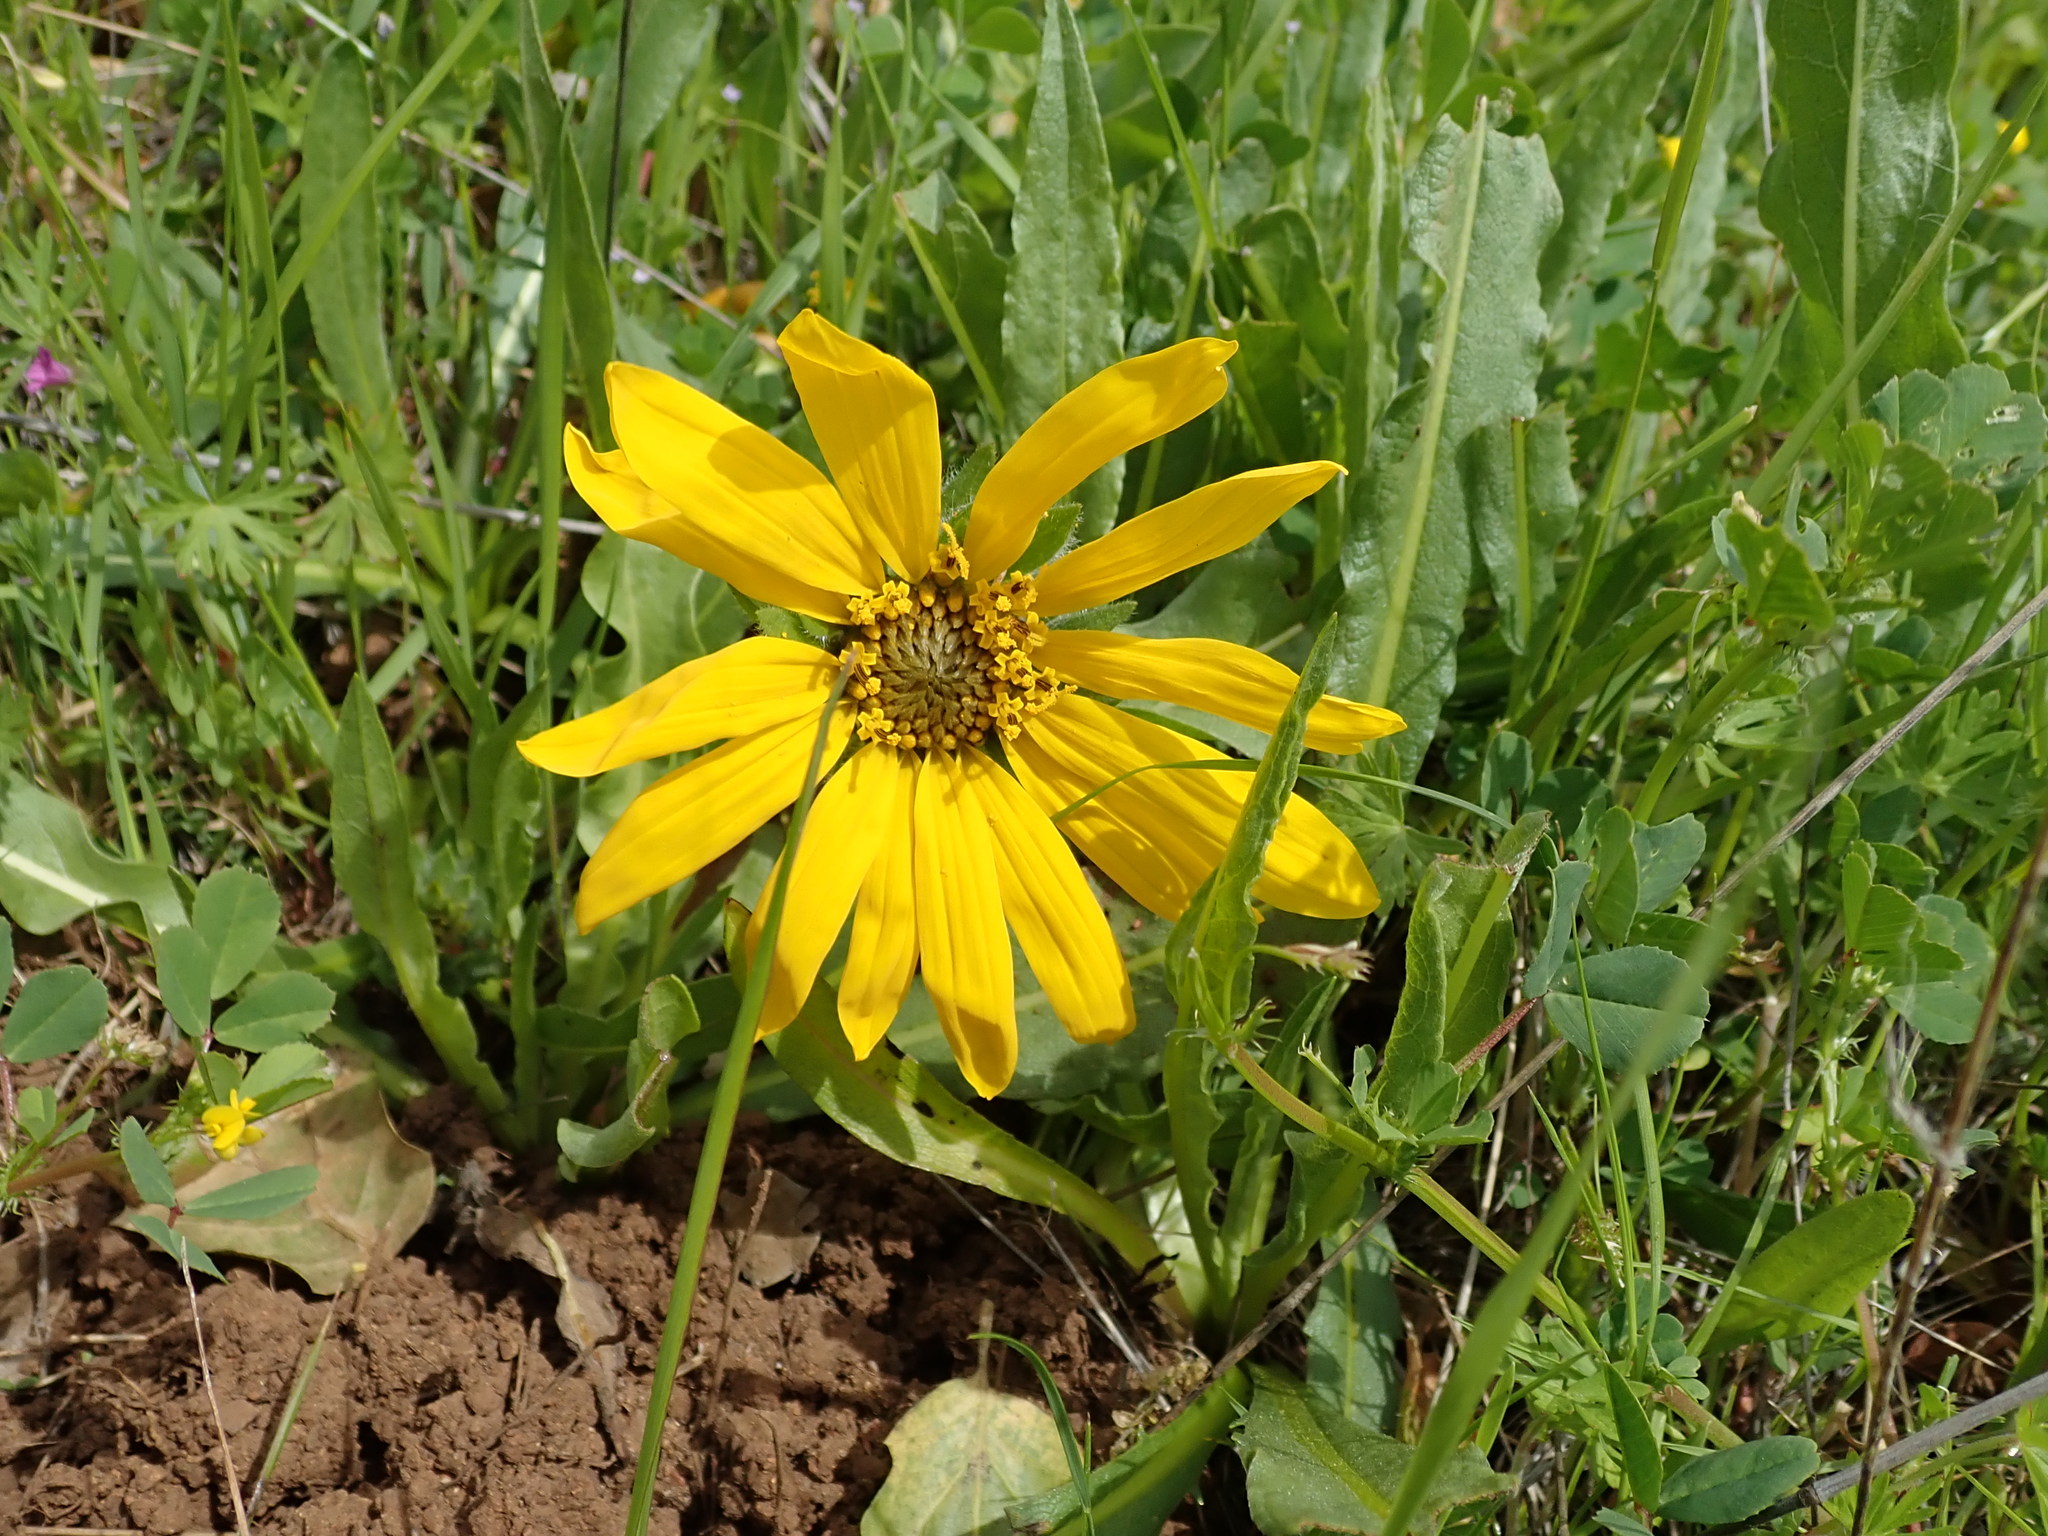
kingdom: Plantae
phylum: Tracheophyta
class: Magnoliopsida
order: Asterales
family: Asteraceae
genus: Wyethia
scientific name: Wyethia angustifolia
